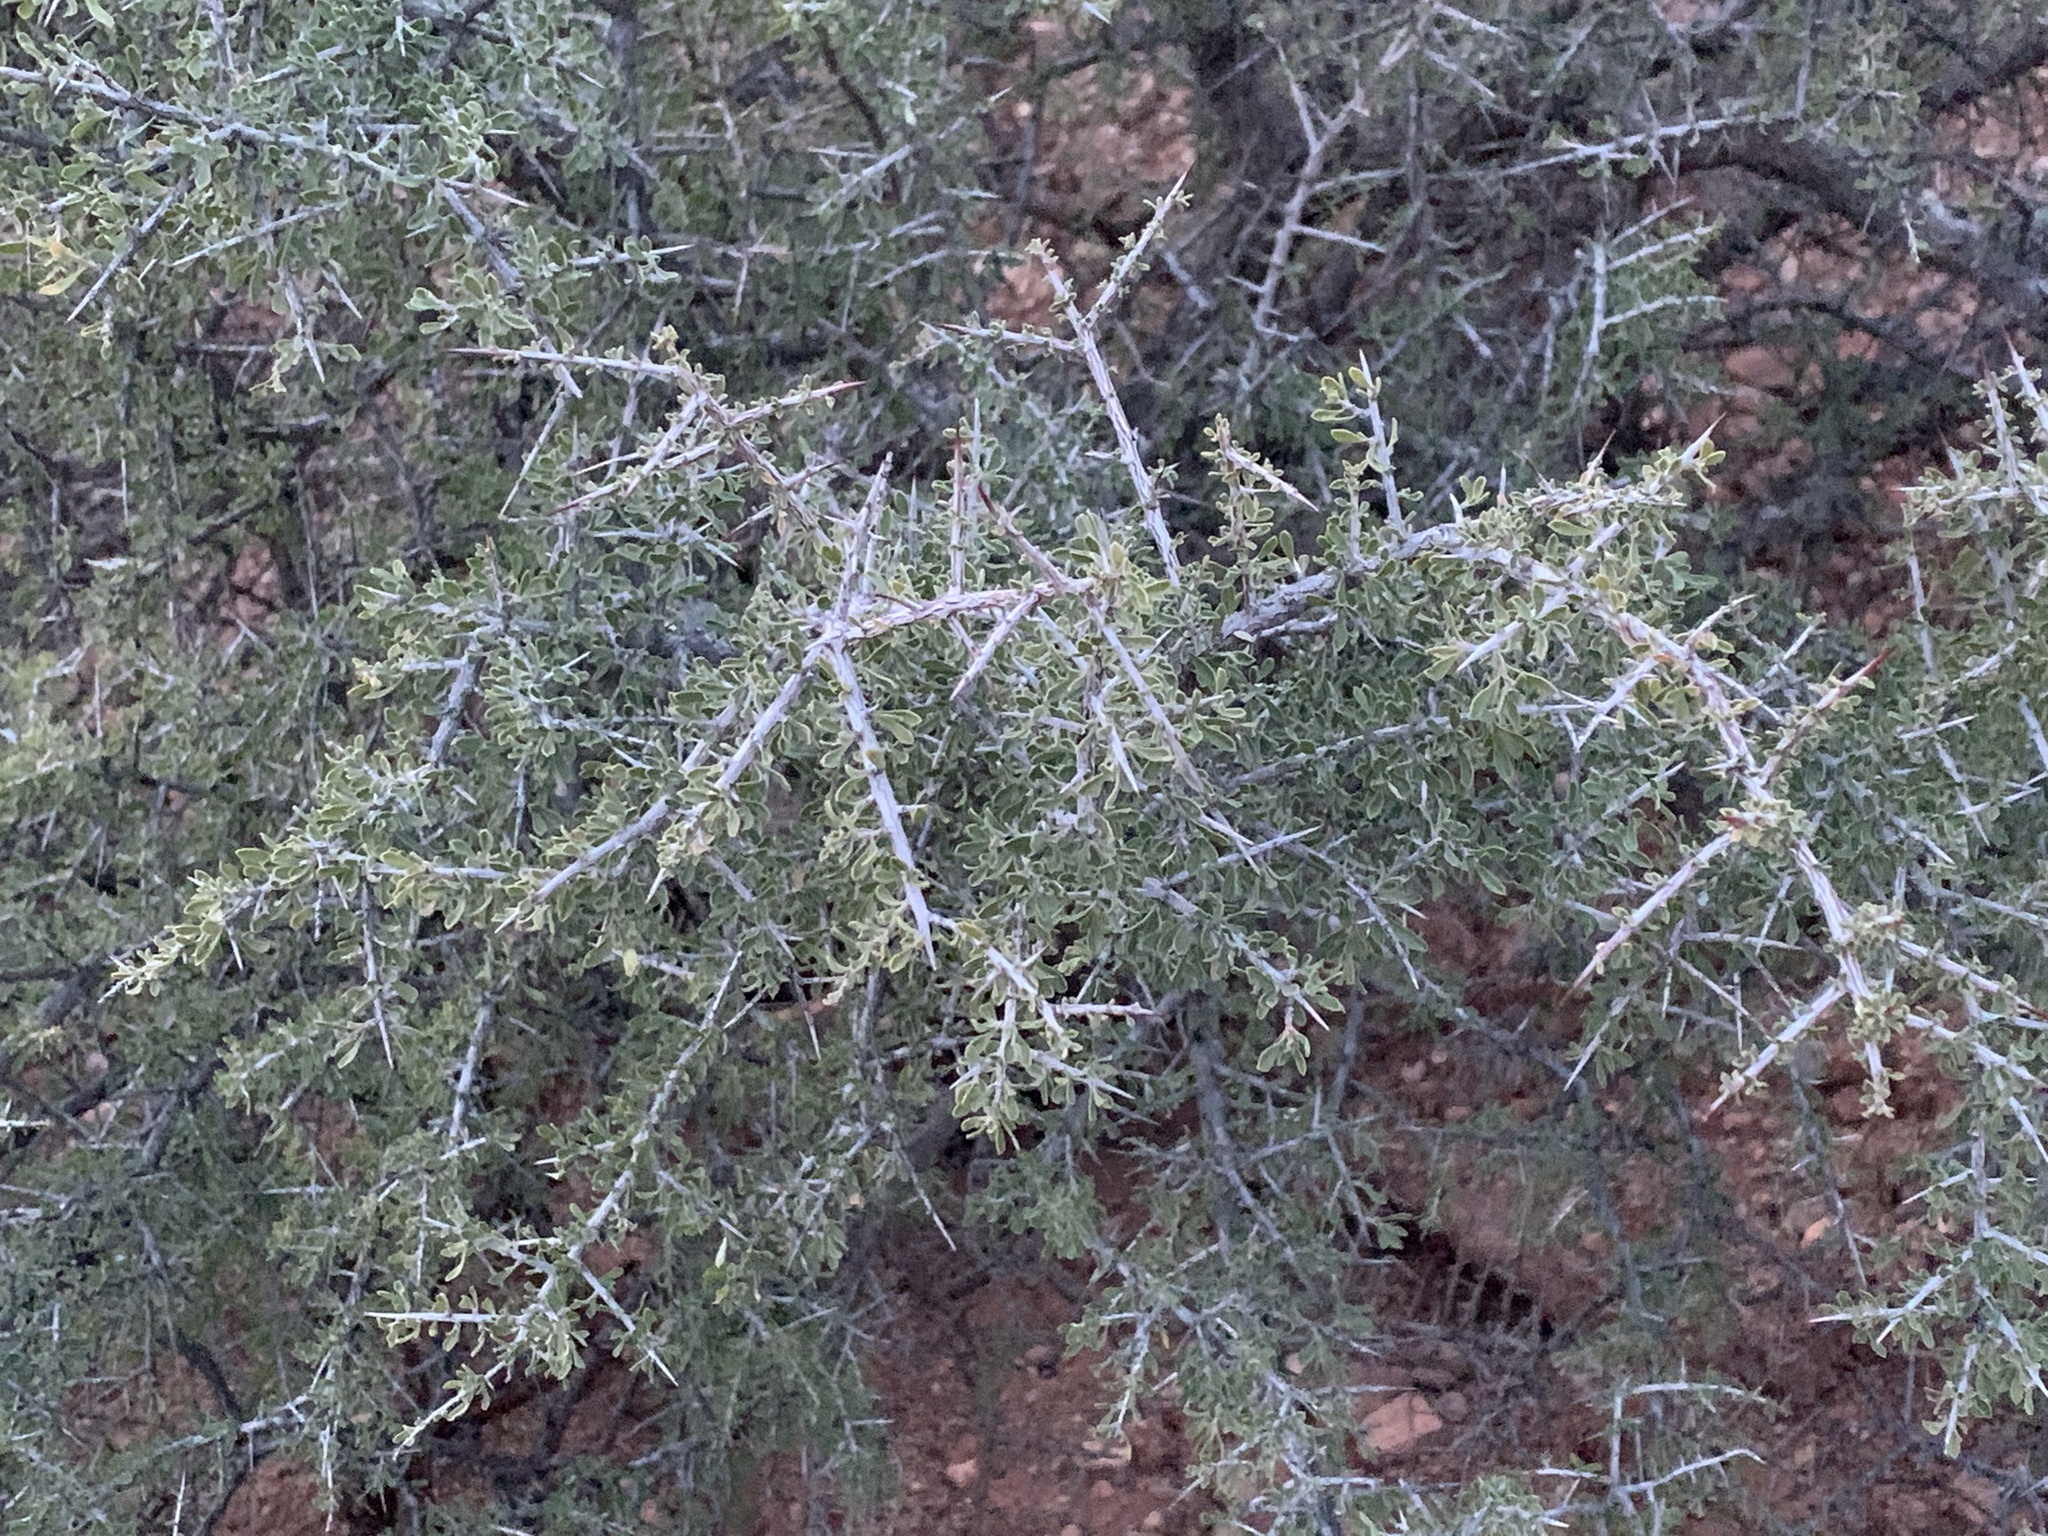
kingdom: Plantae
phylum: Tracheophyta
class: Magnoliopsida
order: Rosales
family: Rhamnaceae
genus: Condalia
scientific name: Condalia warnockii
